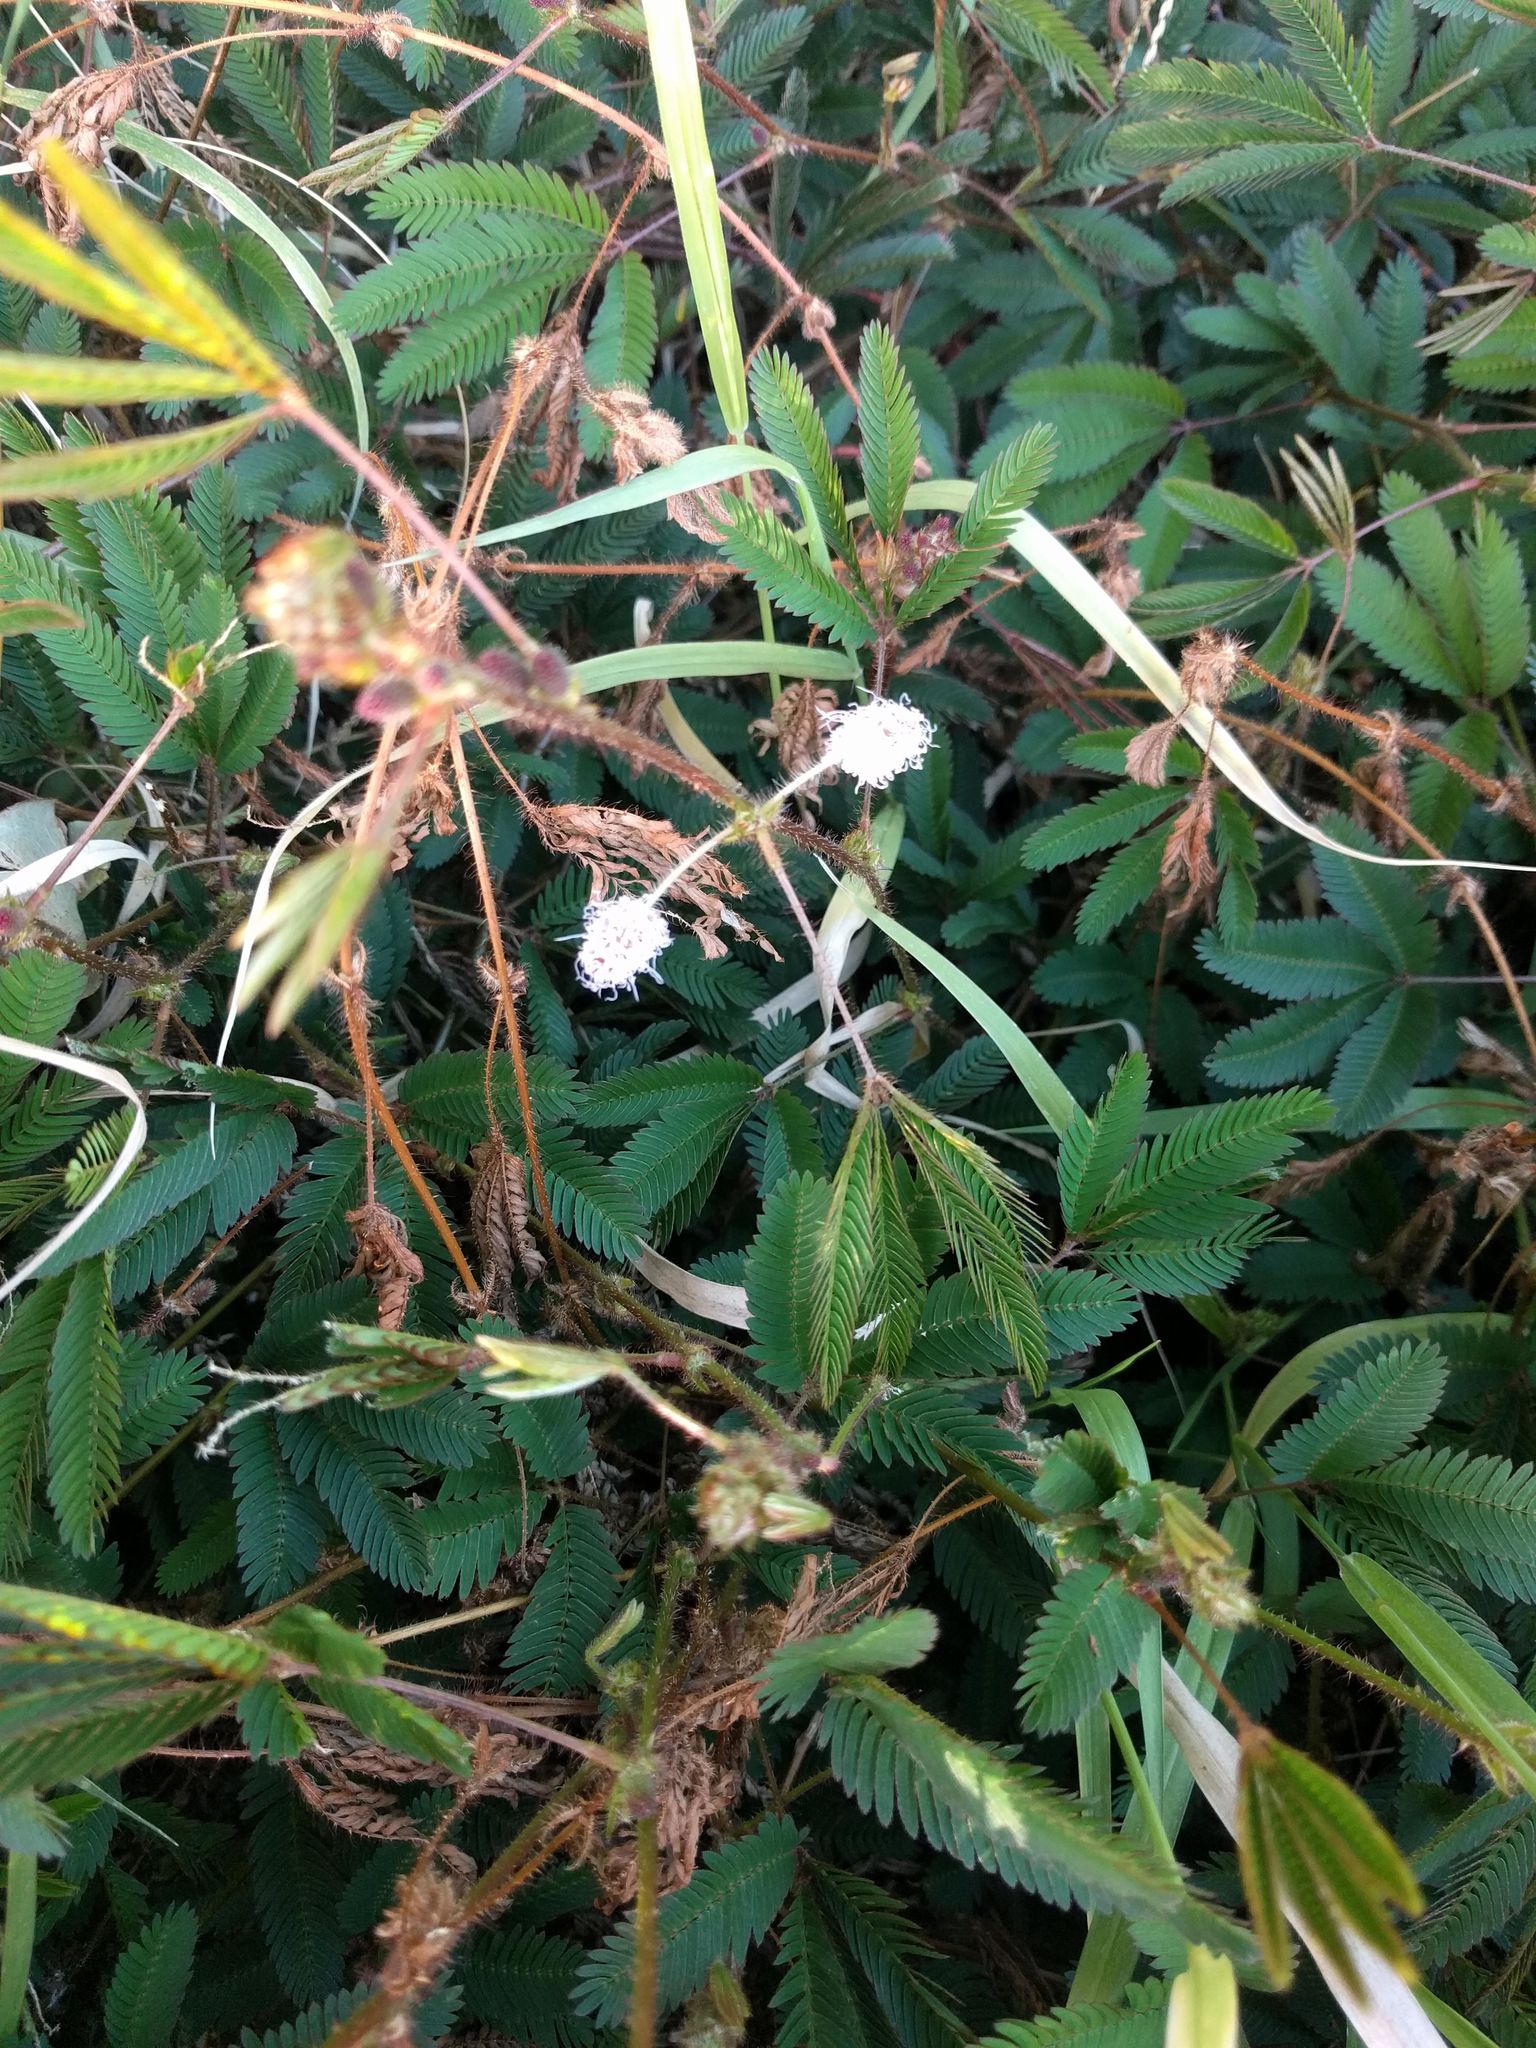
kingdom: Plantae
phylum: Tracheophyta
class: Magnoliopsida
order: Fabales
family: Fabaceae
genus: Mimosa
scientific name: Mimosa pudica
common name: Sensitive plant
